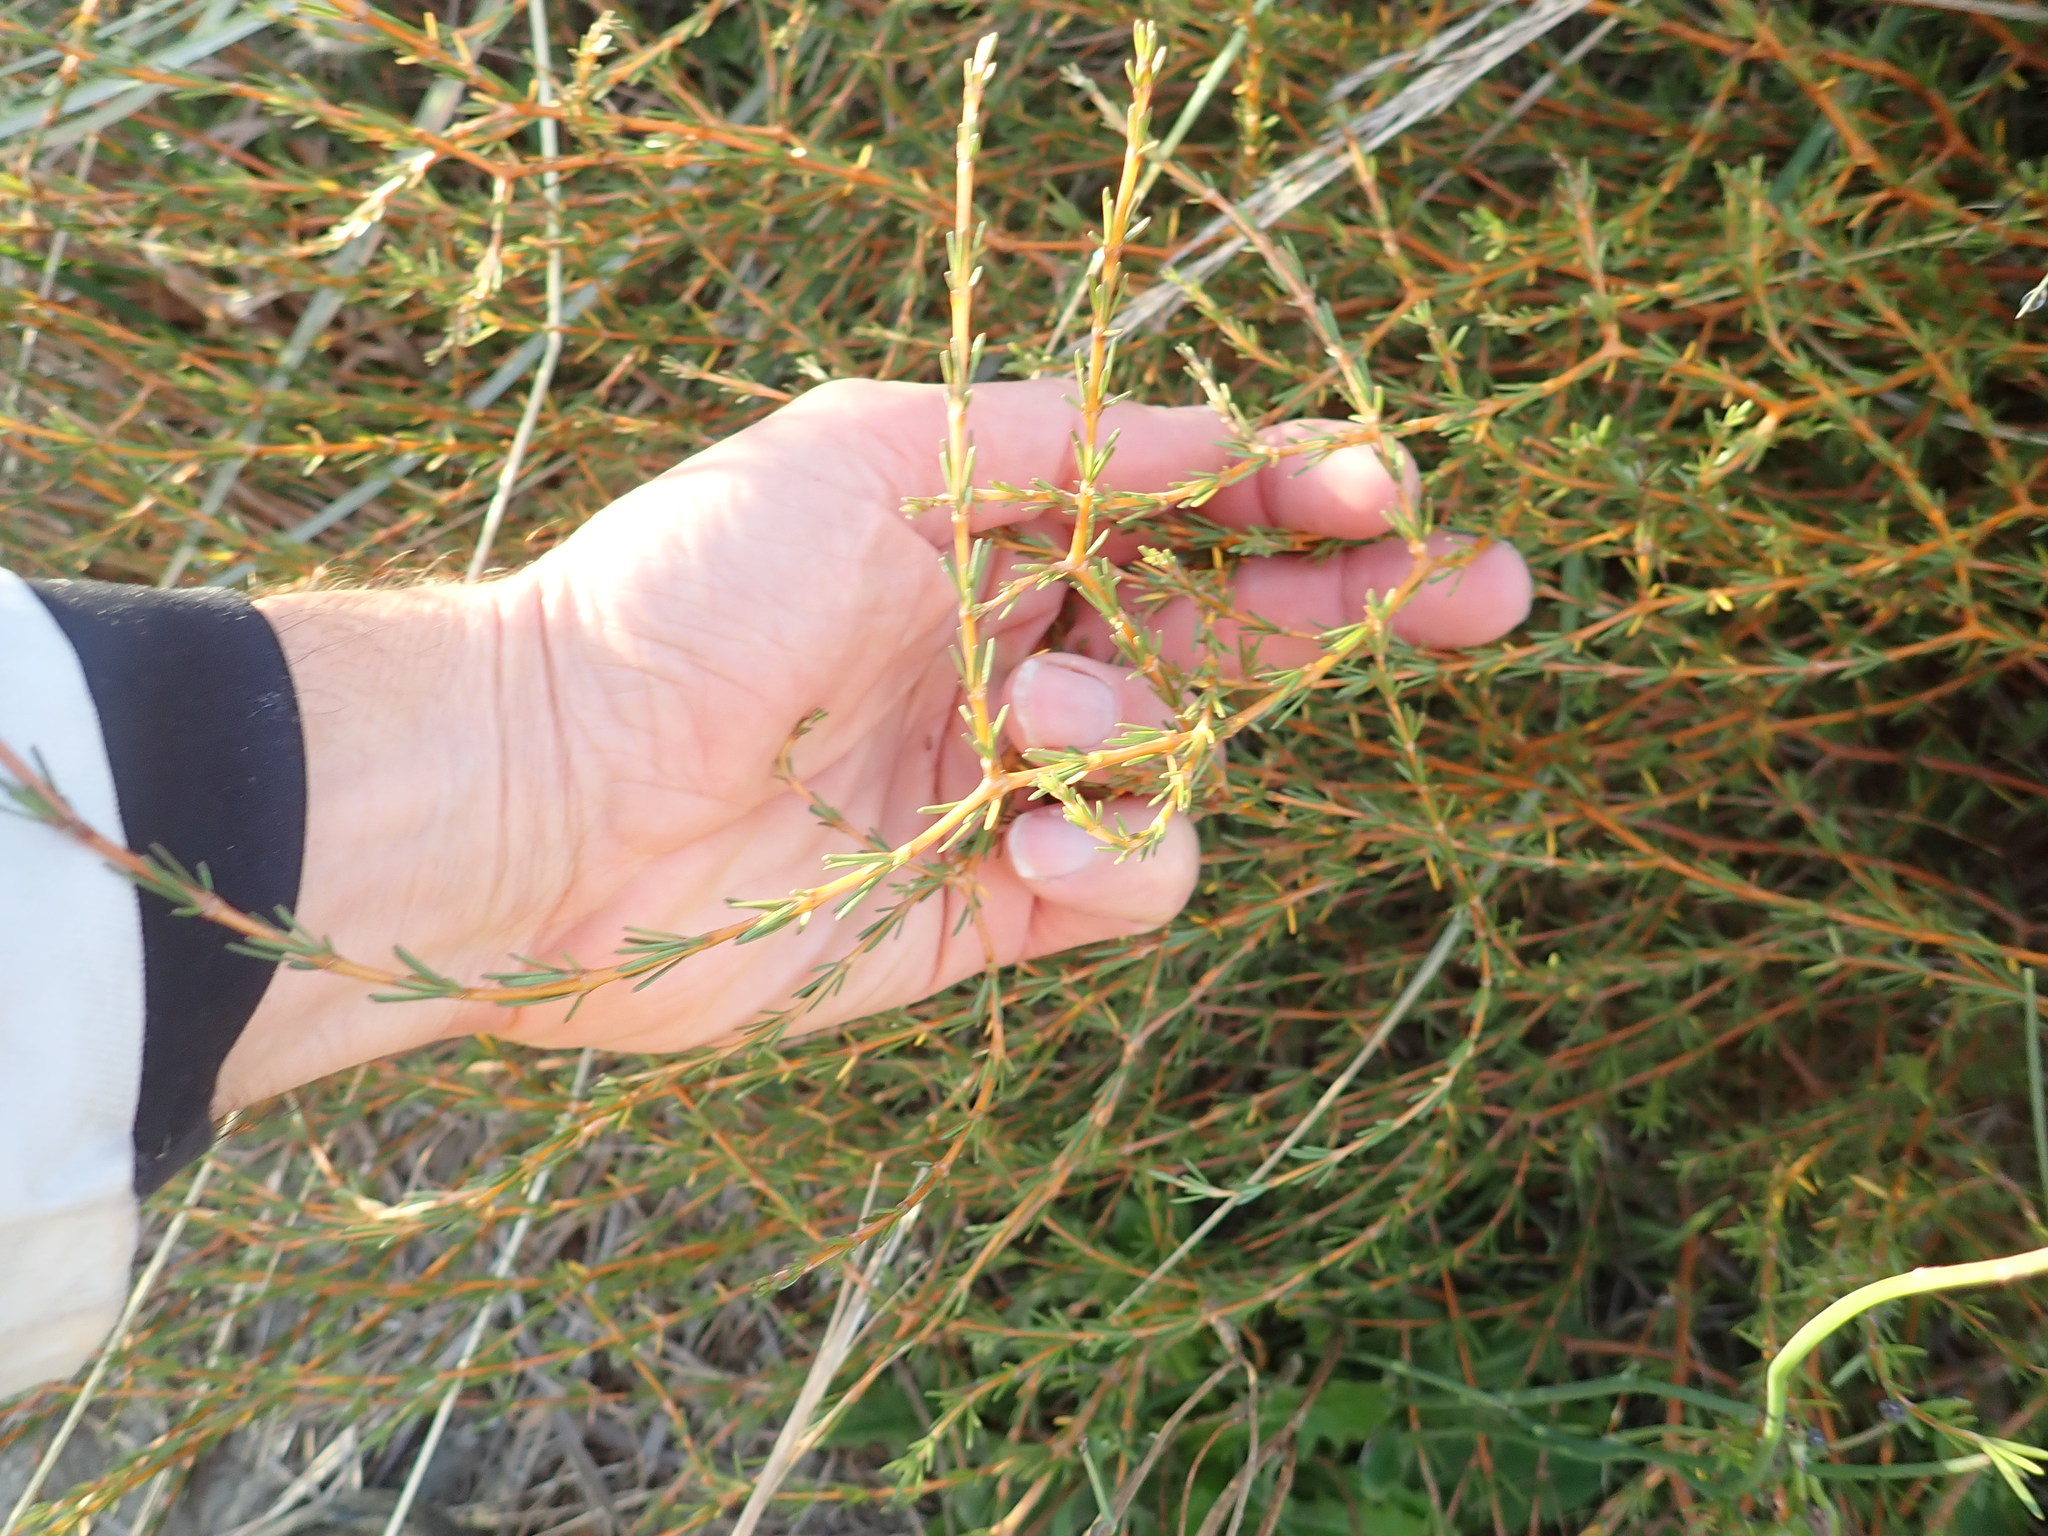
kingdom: Plantae
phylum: Tracheophyta
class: Magnoliopsida
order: Gentianales
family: Rubiaceae
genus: Coprosma
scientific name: Coprosma acerosa
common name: Sand coprosma
